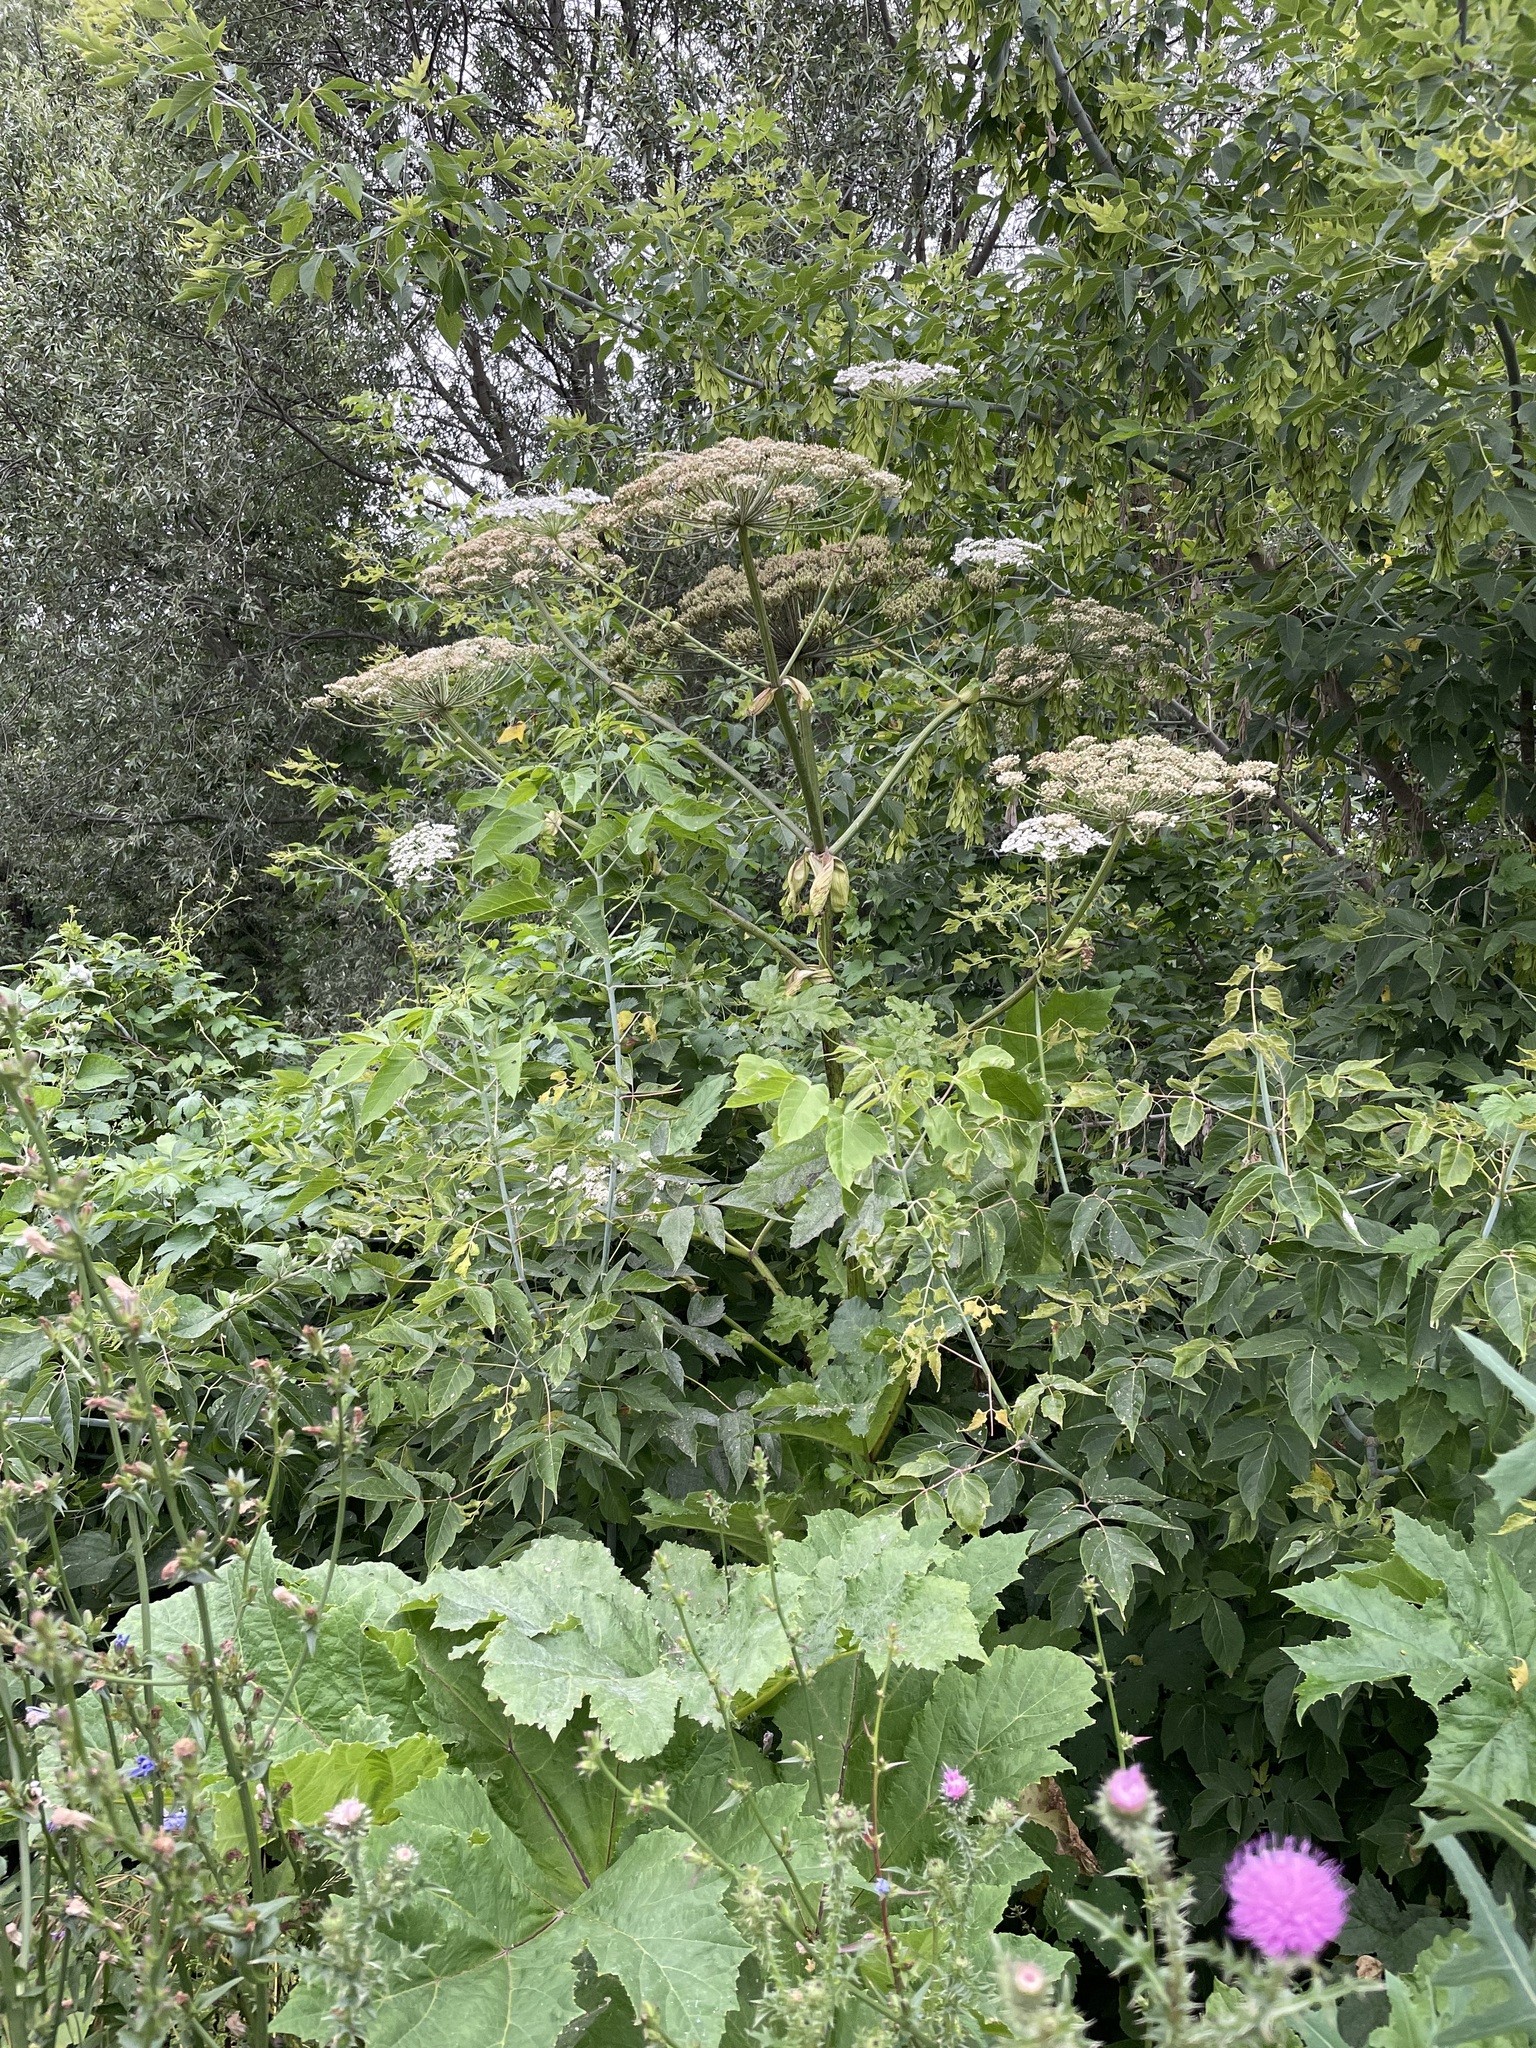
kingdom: Plantae
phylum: Tracheophyta
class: Magnoliopsida
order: Apiales
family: Apiaceae
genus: Heracleum
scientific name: Heracleum sosnowskyi
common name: Sosnowsky's hogweed
